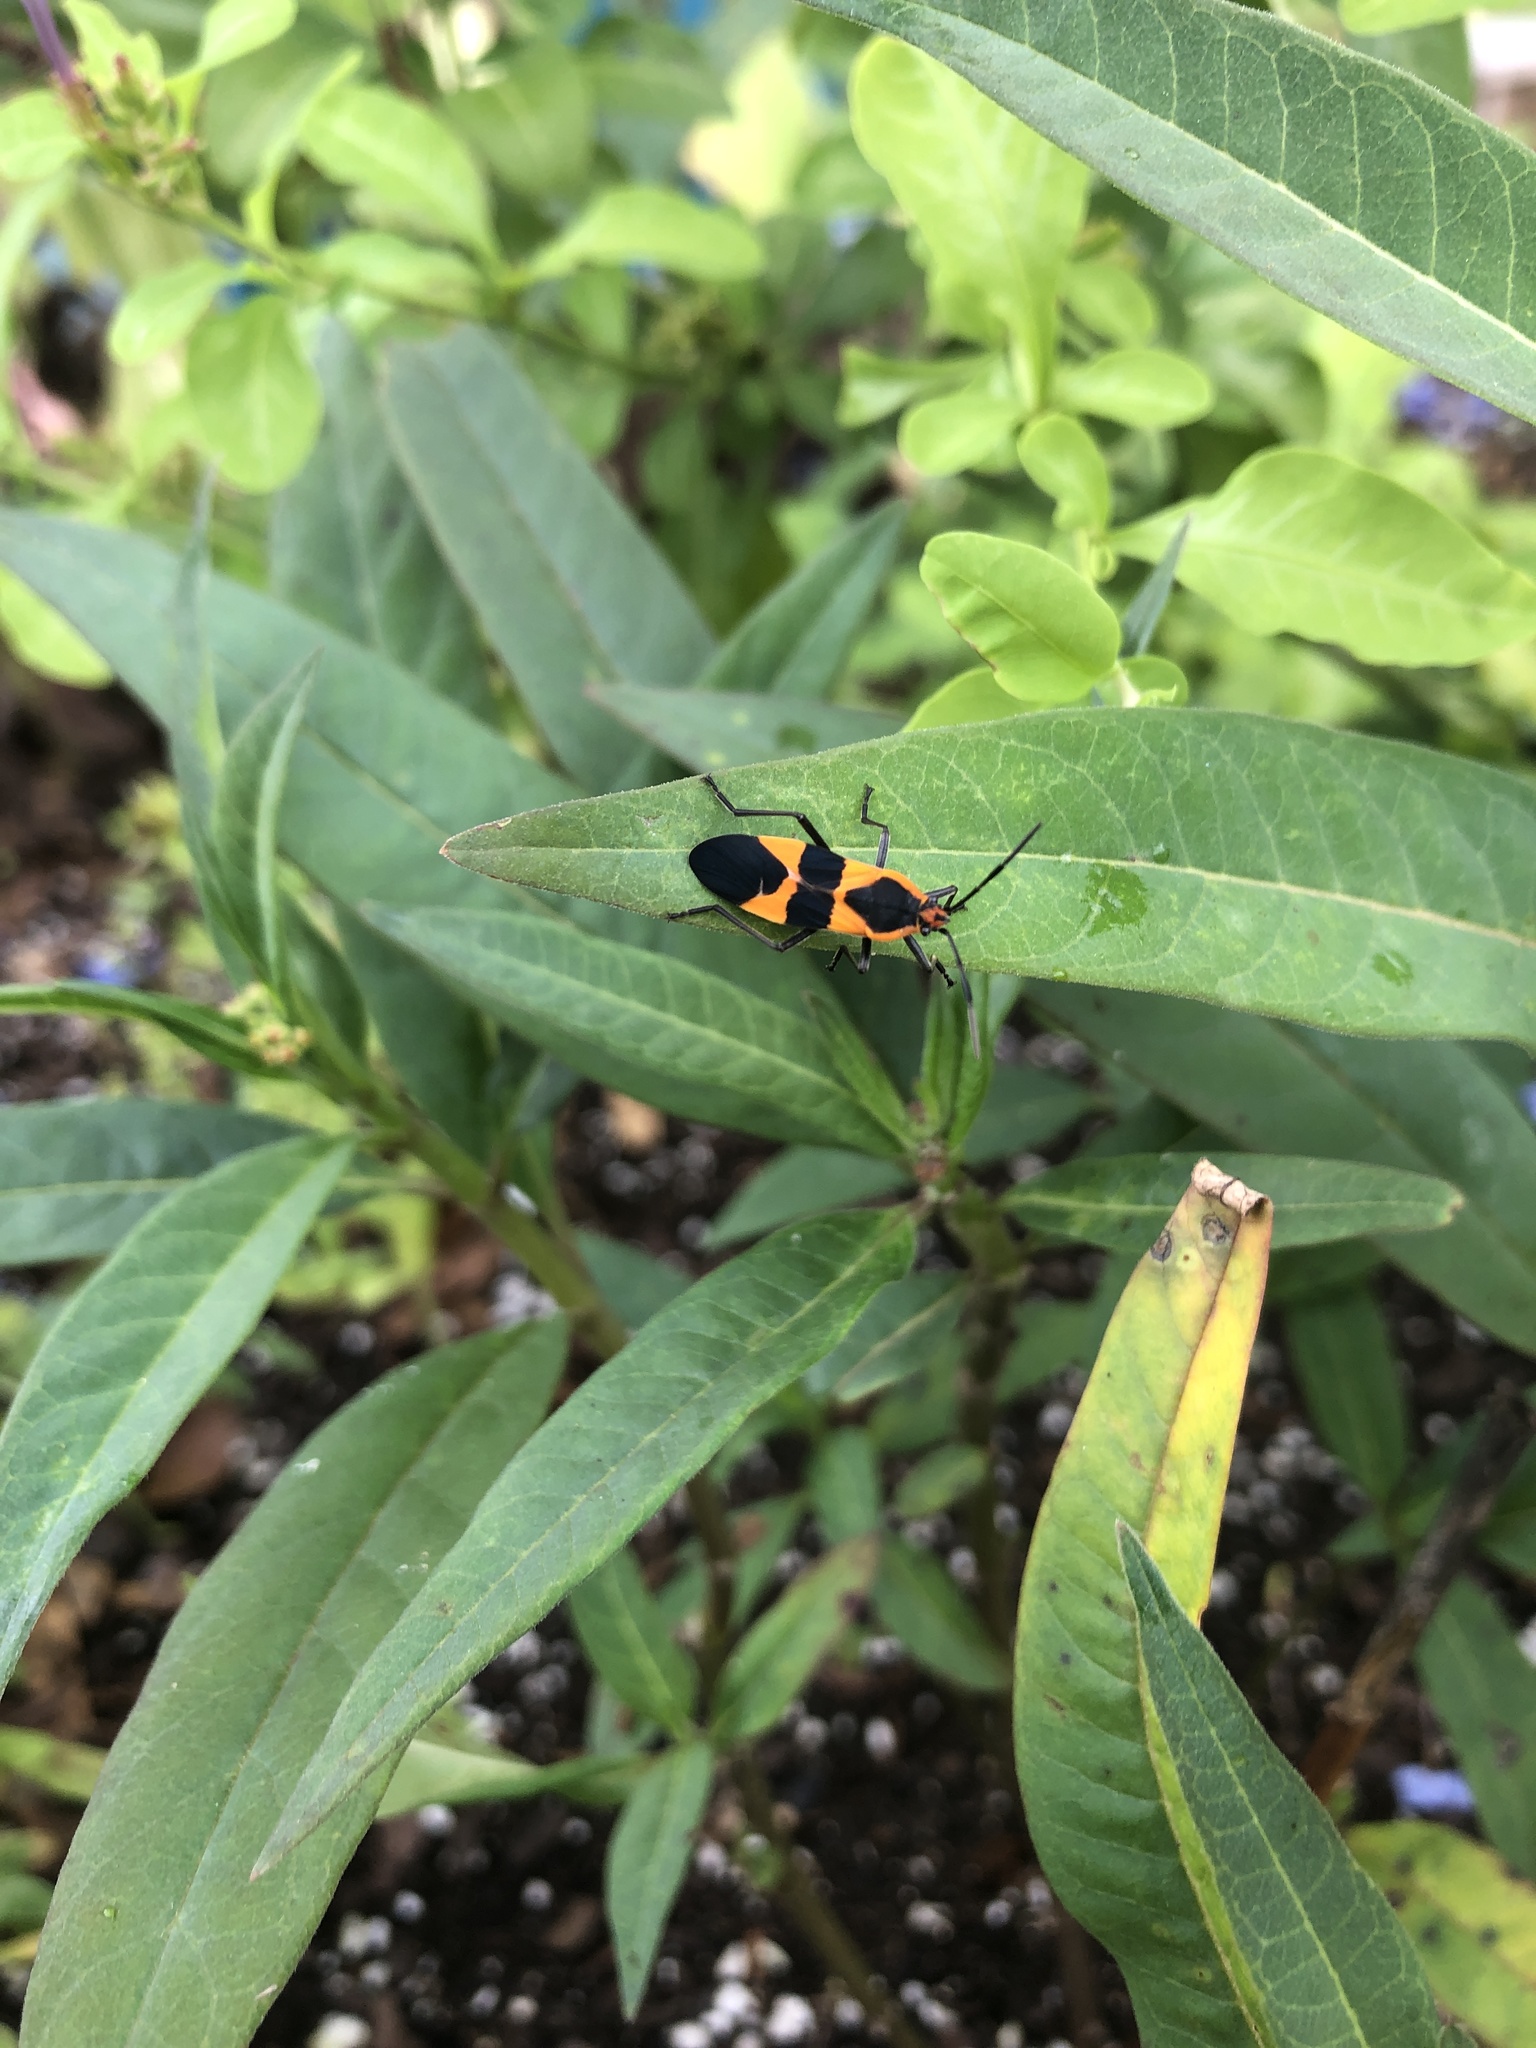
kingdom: Animalia
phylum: Arthropoda
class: Insecta
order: Hemiptera
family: Lygaeidae
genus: Oncopeltus
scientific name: Oncopeltus fasciatus
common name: Large milkweed bug
